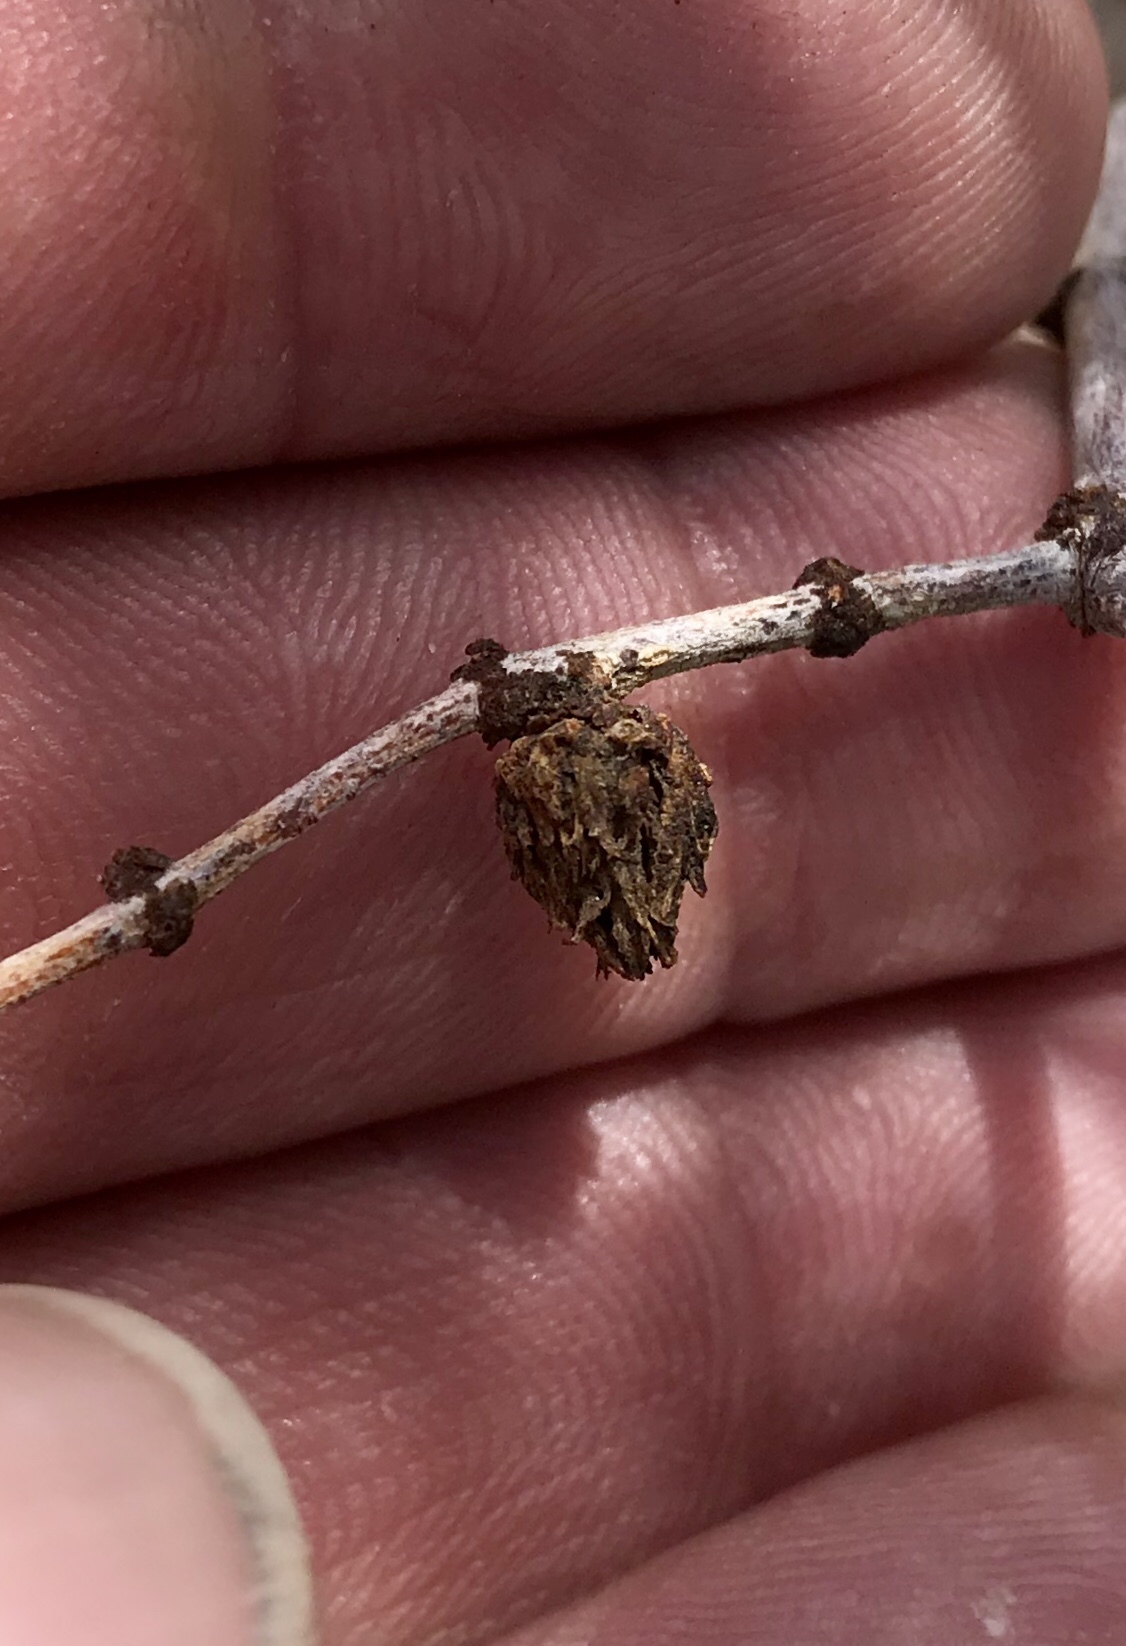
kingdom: Animalia
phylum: Arthropoda
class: Insecta
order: Diptera
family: Cecidomyiidae
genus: Asphondylia
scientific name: Asphondylia foliosa
